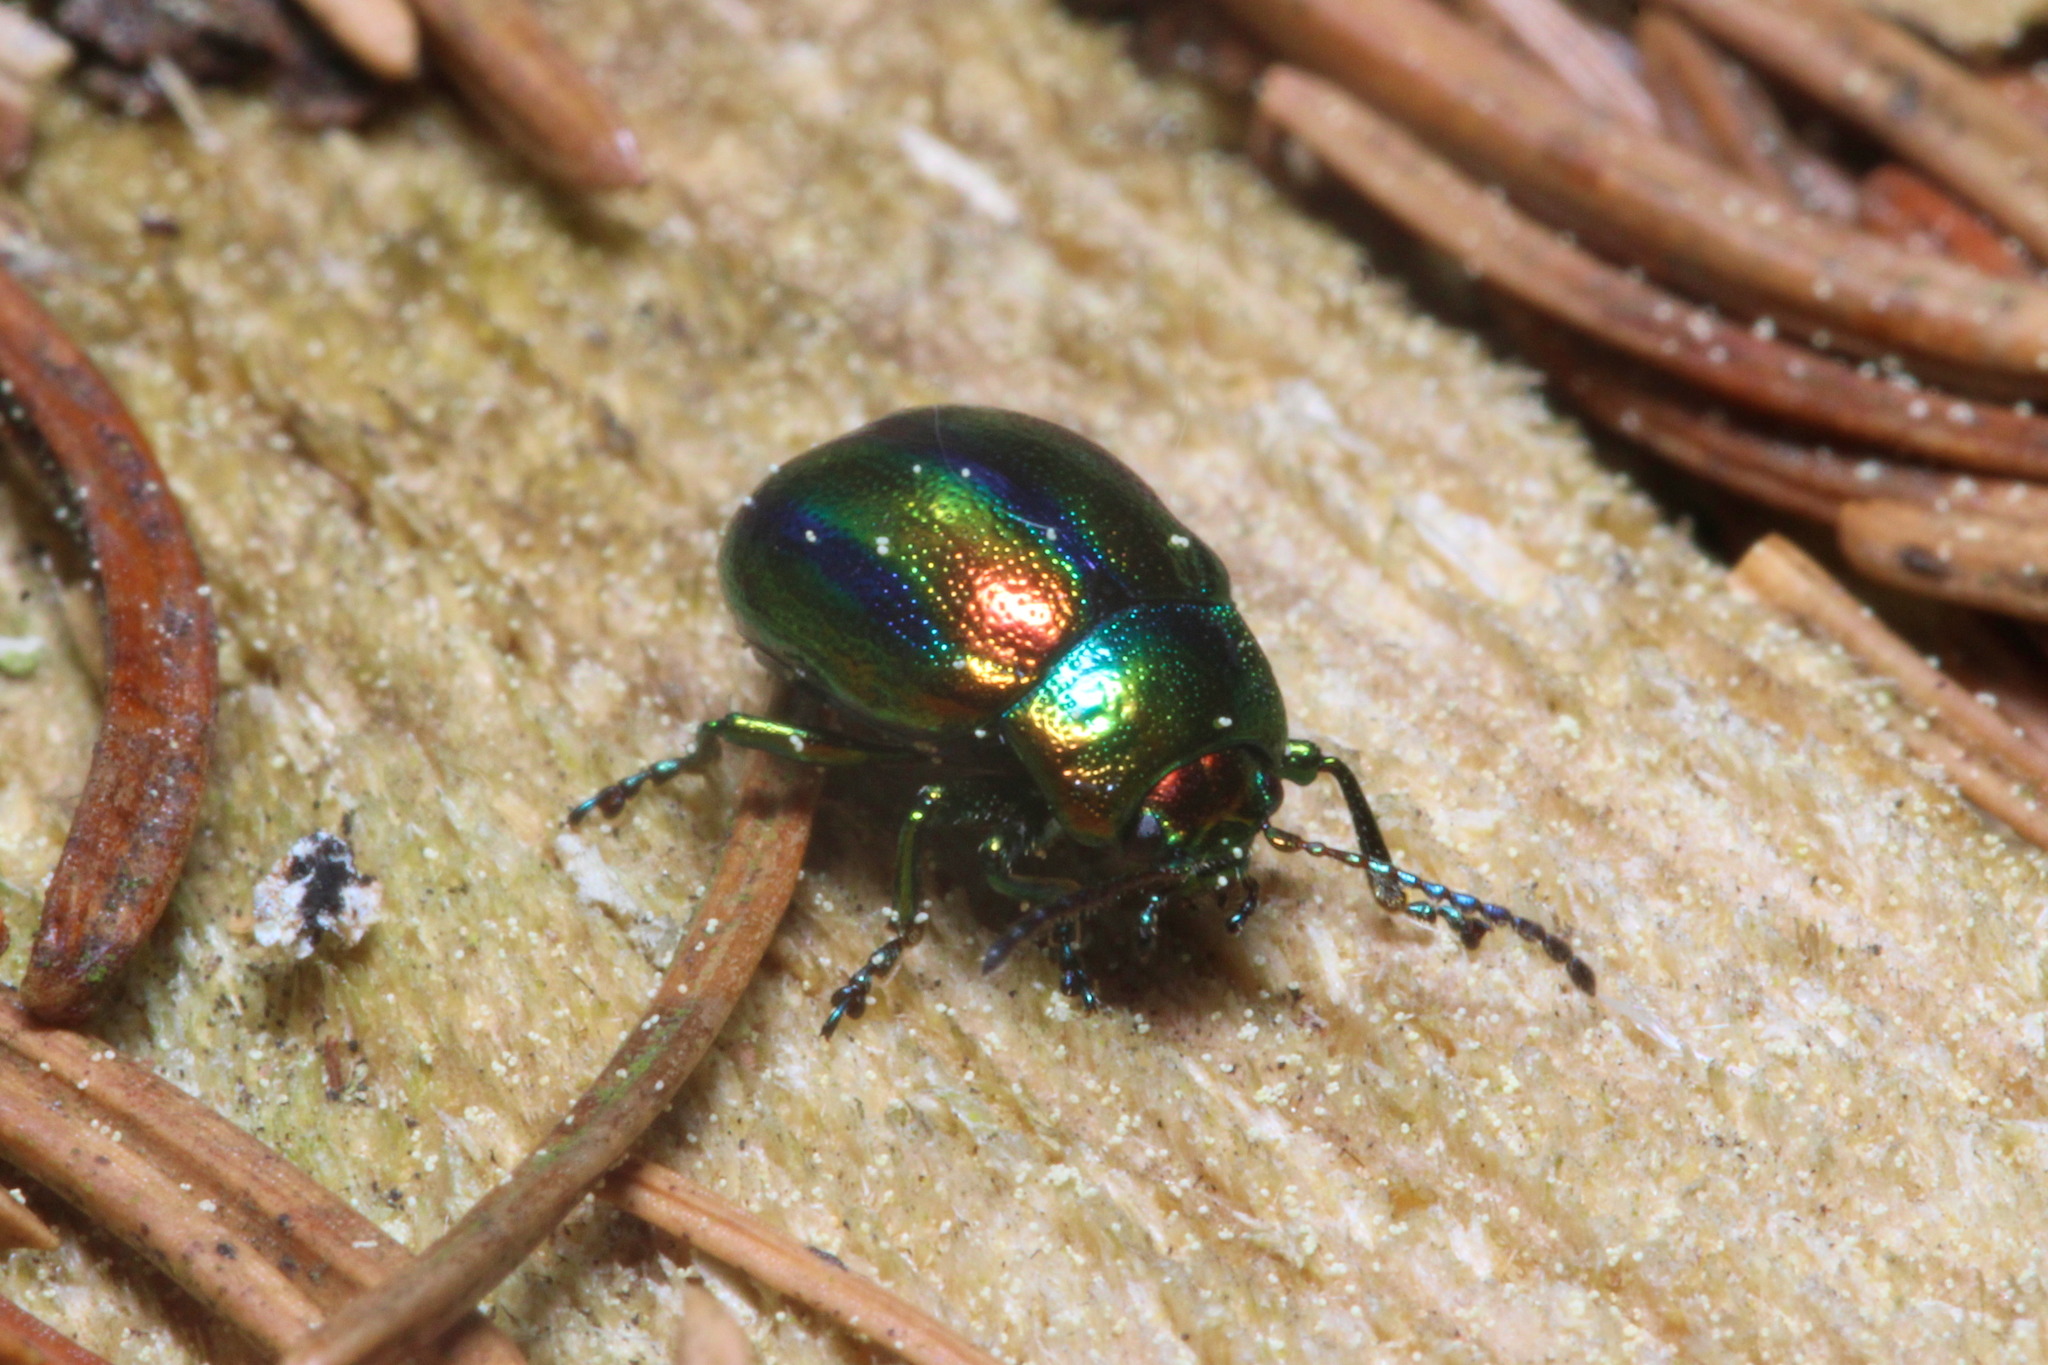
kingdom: Animalia
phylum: Arthropoda
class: Insecta
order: Coleoptera
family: Chrysomelidae
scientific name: Chrysomelidae
